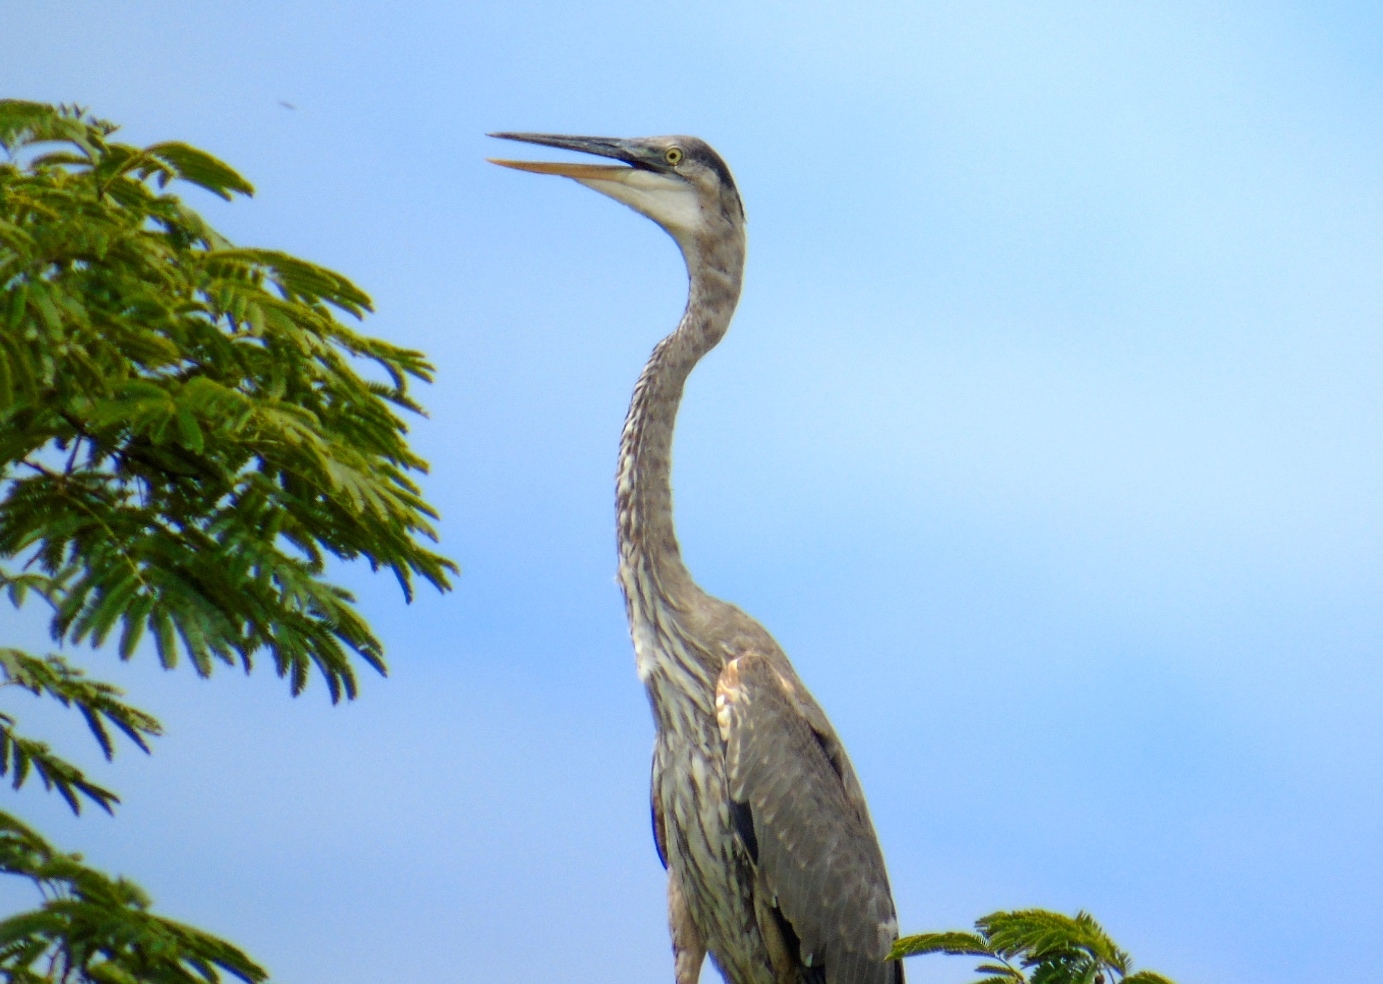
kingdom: Animalia
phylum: Chordata
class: Aves
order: Pelecaniformes
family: Ardeidae
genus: Ardea
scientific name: Ardea herodias
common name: Great blue heron
